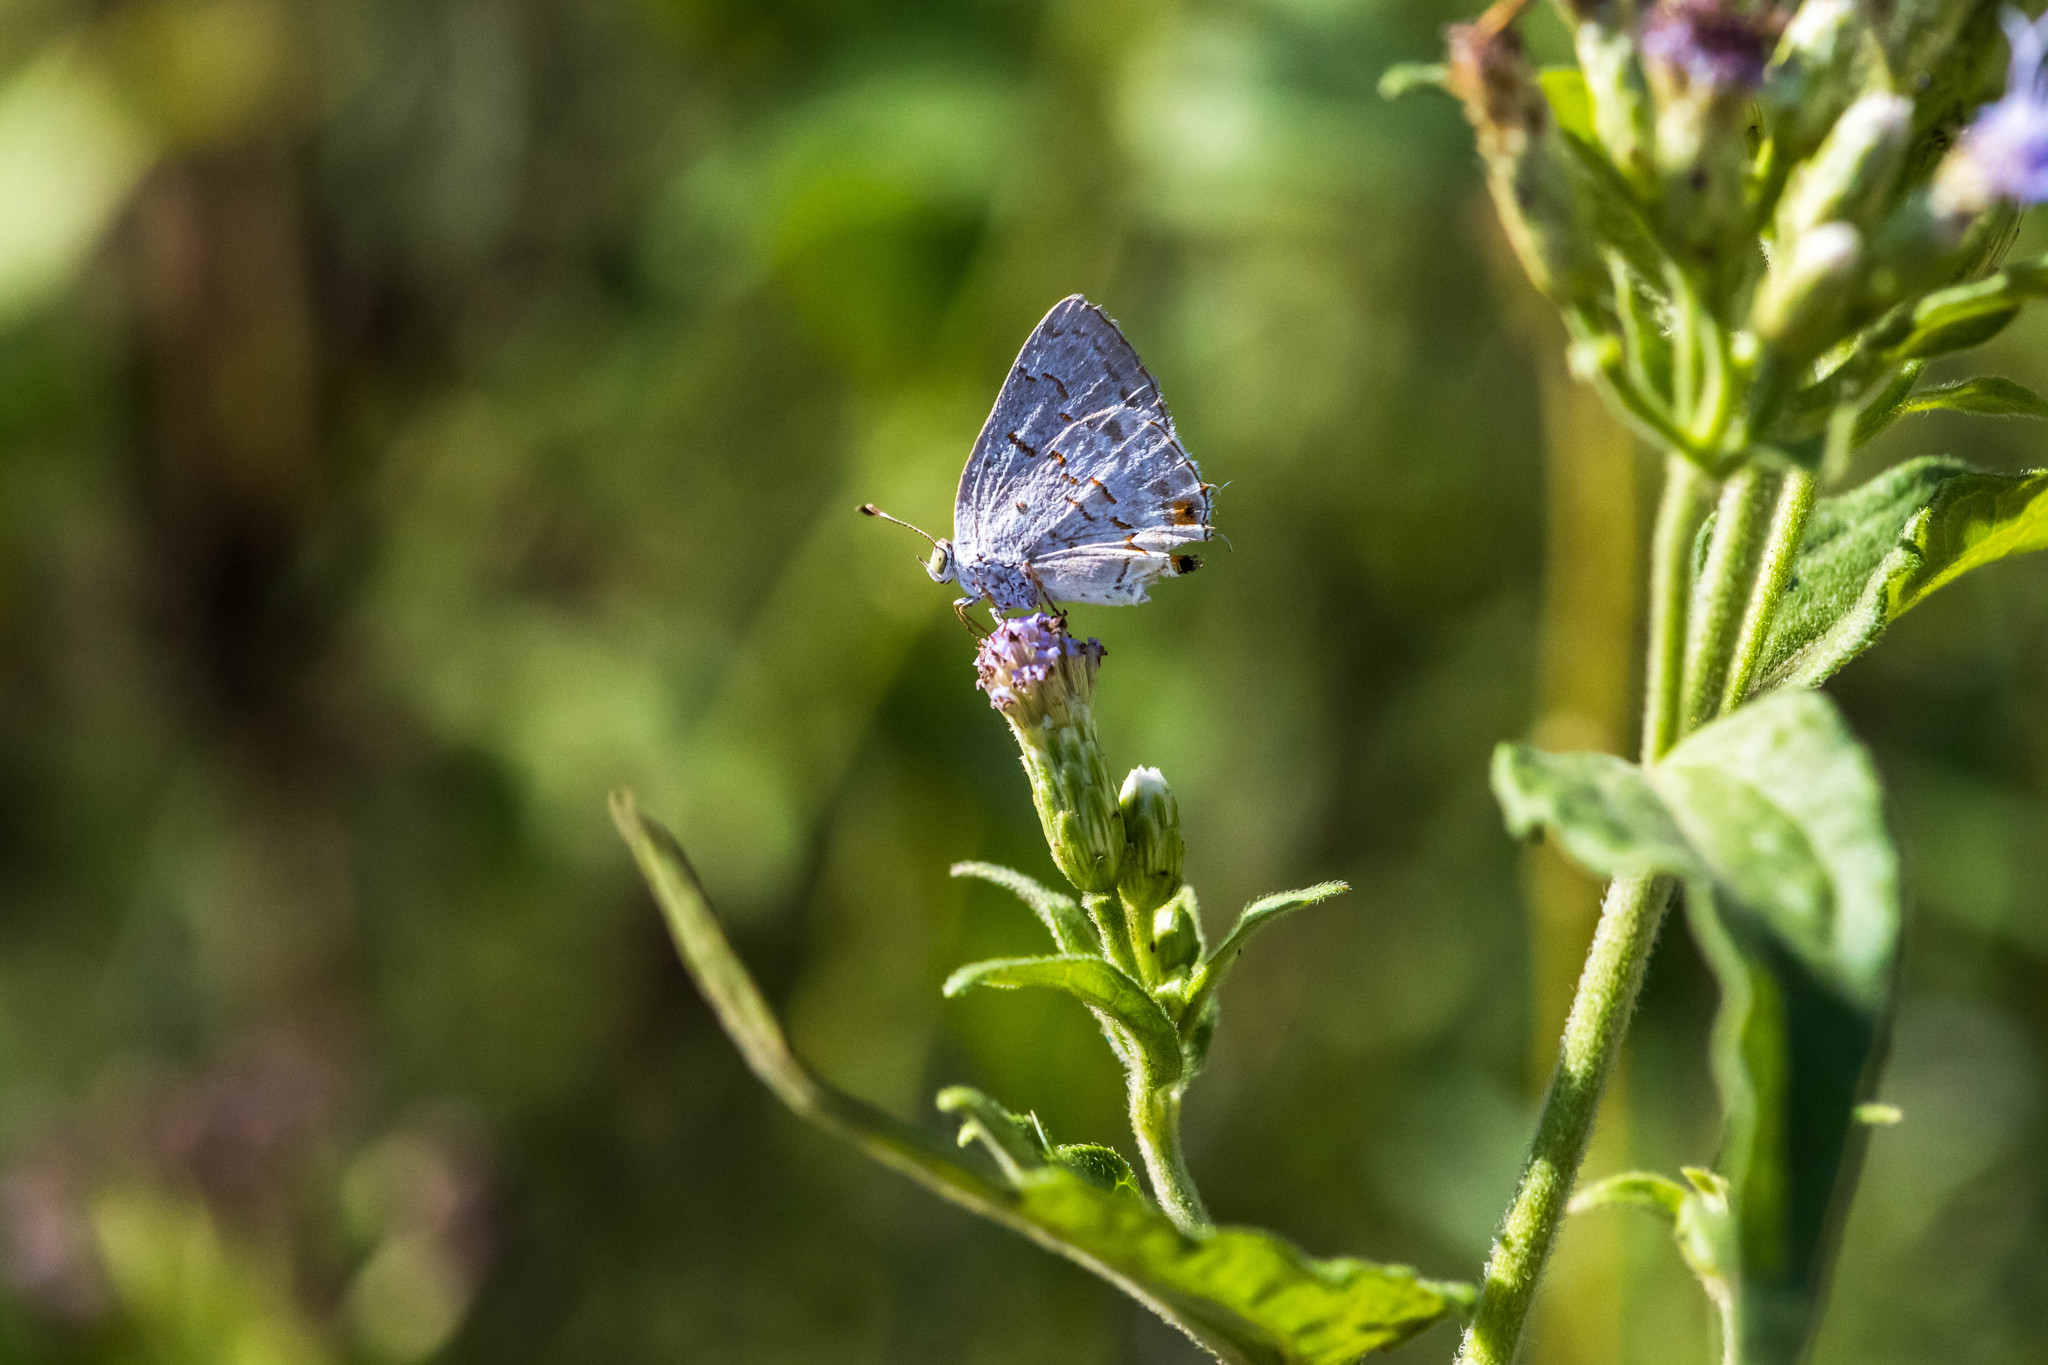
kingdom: Animalia
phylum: Arthropoda
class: Insecta
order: Lepidoptera
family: Lycaenidae
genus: Ministrymon
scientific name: Ministrymon clytie
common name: Clytie ministreak
